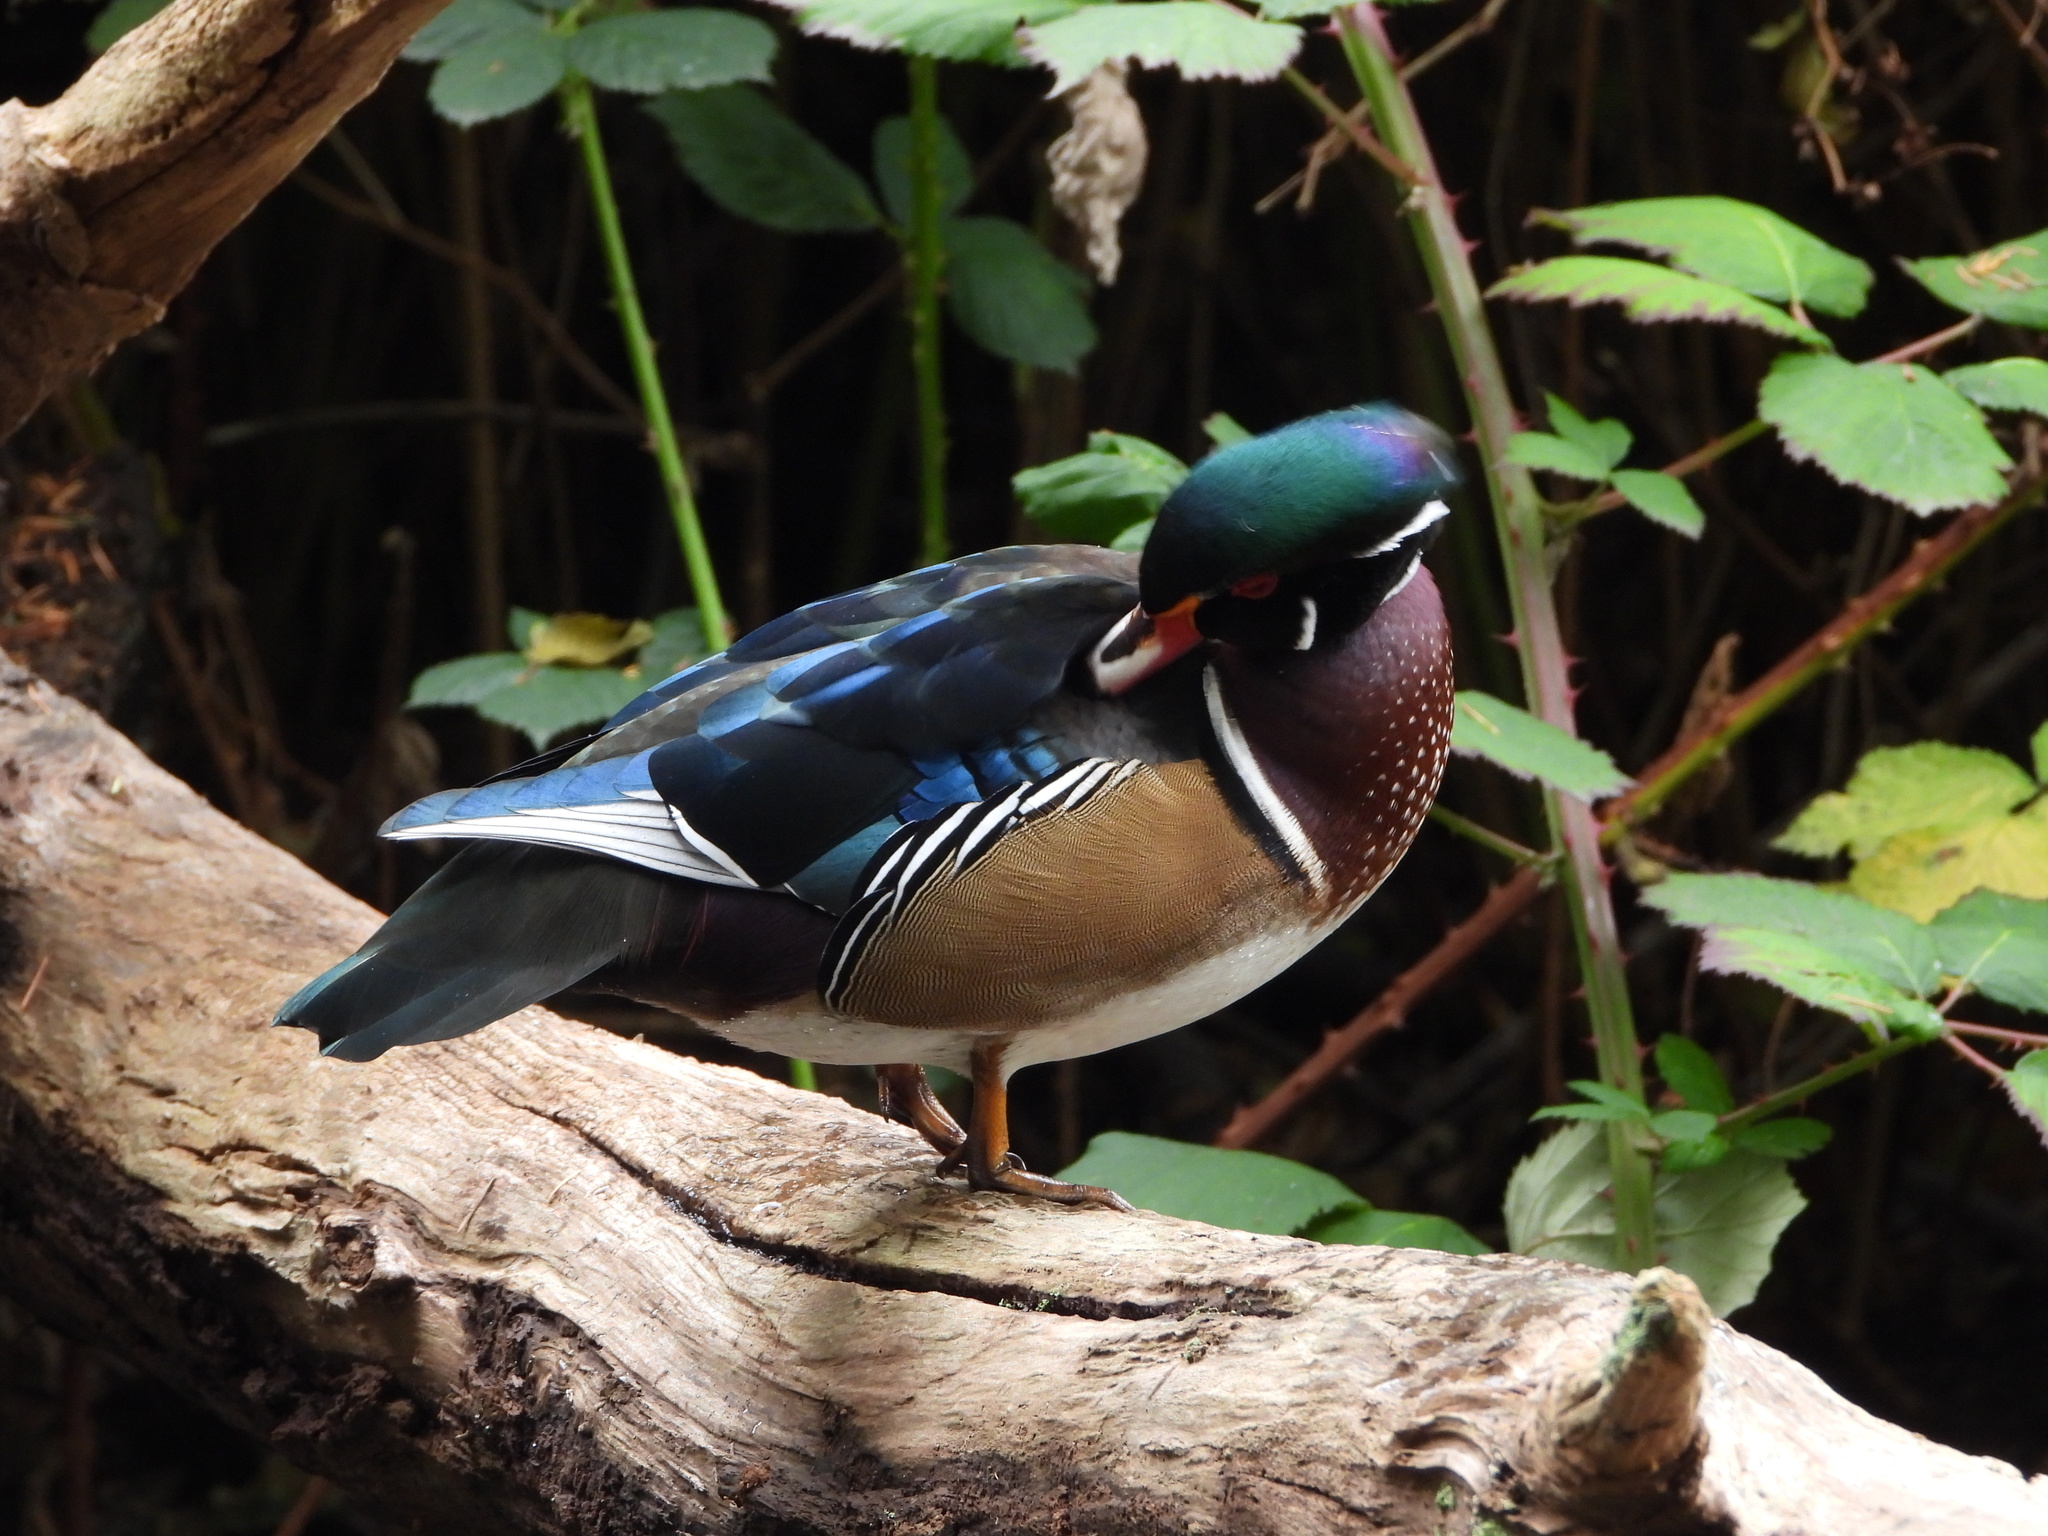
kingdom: Animalia
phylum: Chordata
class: Aves
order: Anseriformes
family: Anatidae
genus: Aix
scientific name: Aix sponsa
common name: Wood duck
